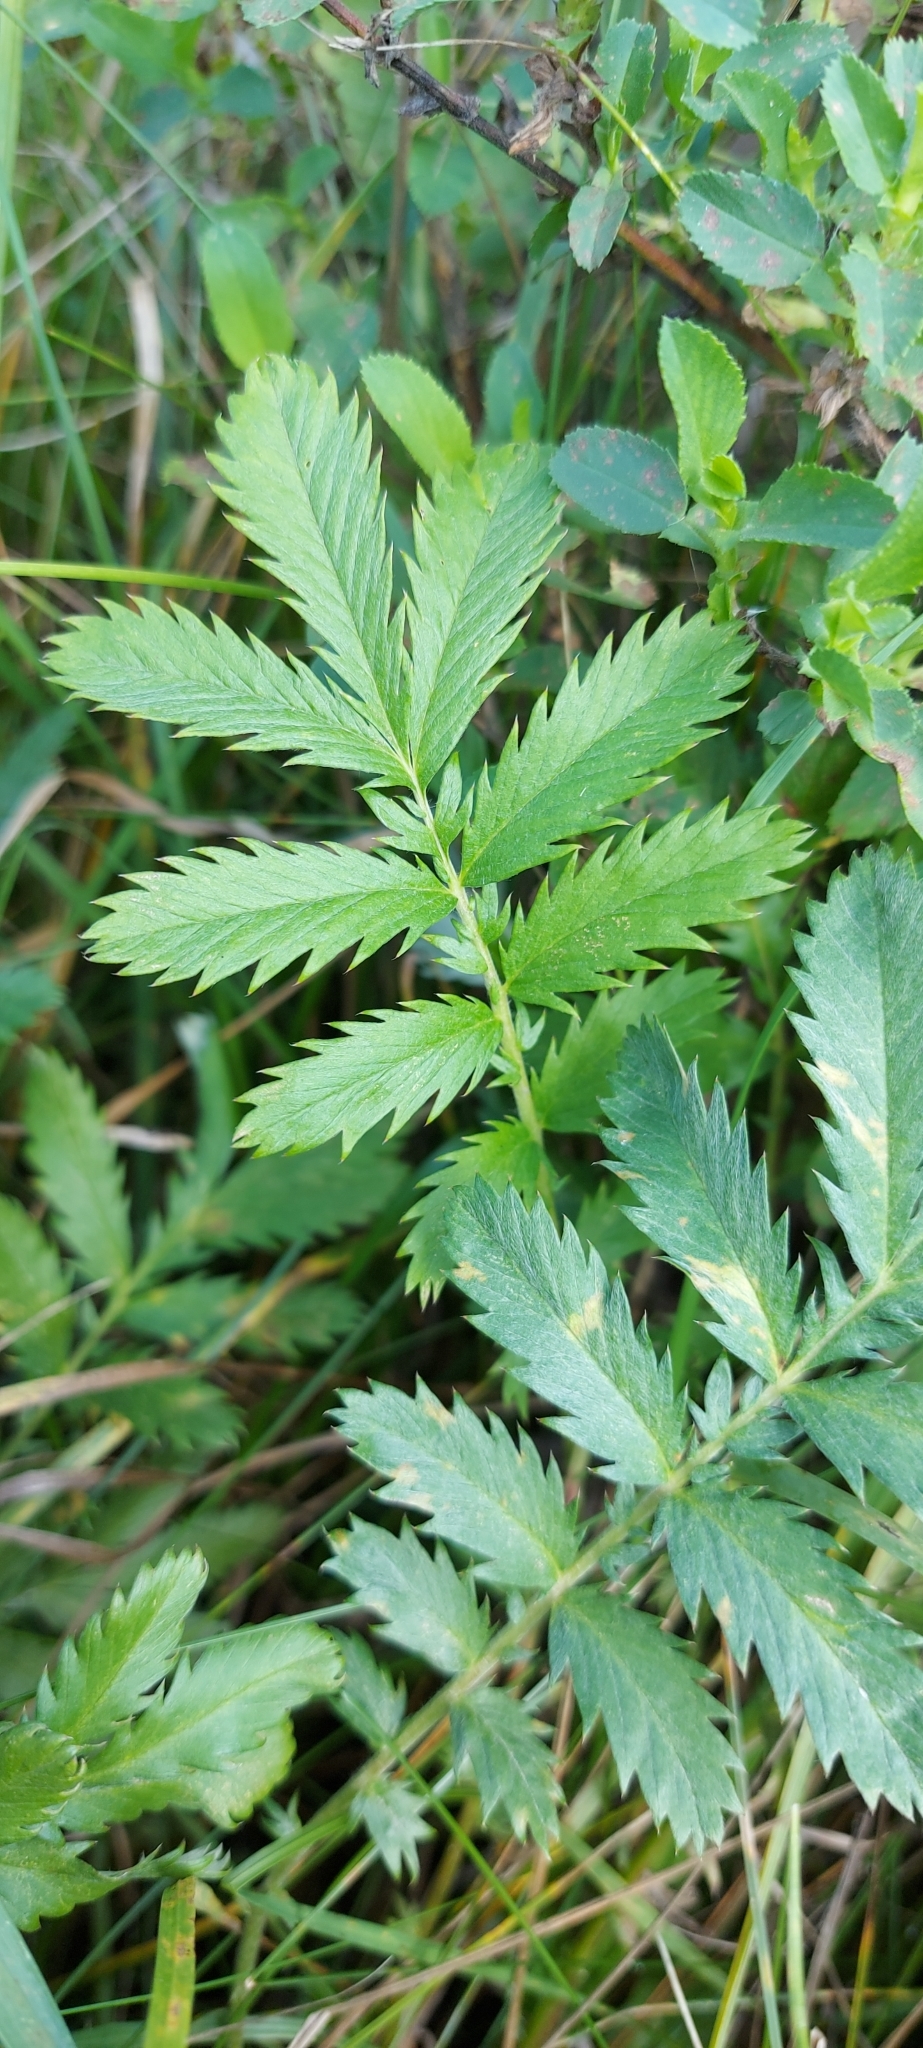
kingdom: Plantae
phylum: Tracheophyta
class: Magnoliopsida
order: Rosales
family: Rosaceae
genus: Argentina
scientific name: Argentina anserina
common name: Common silverweed
